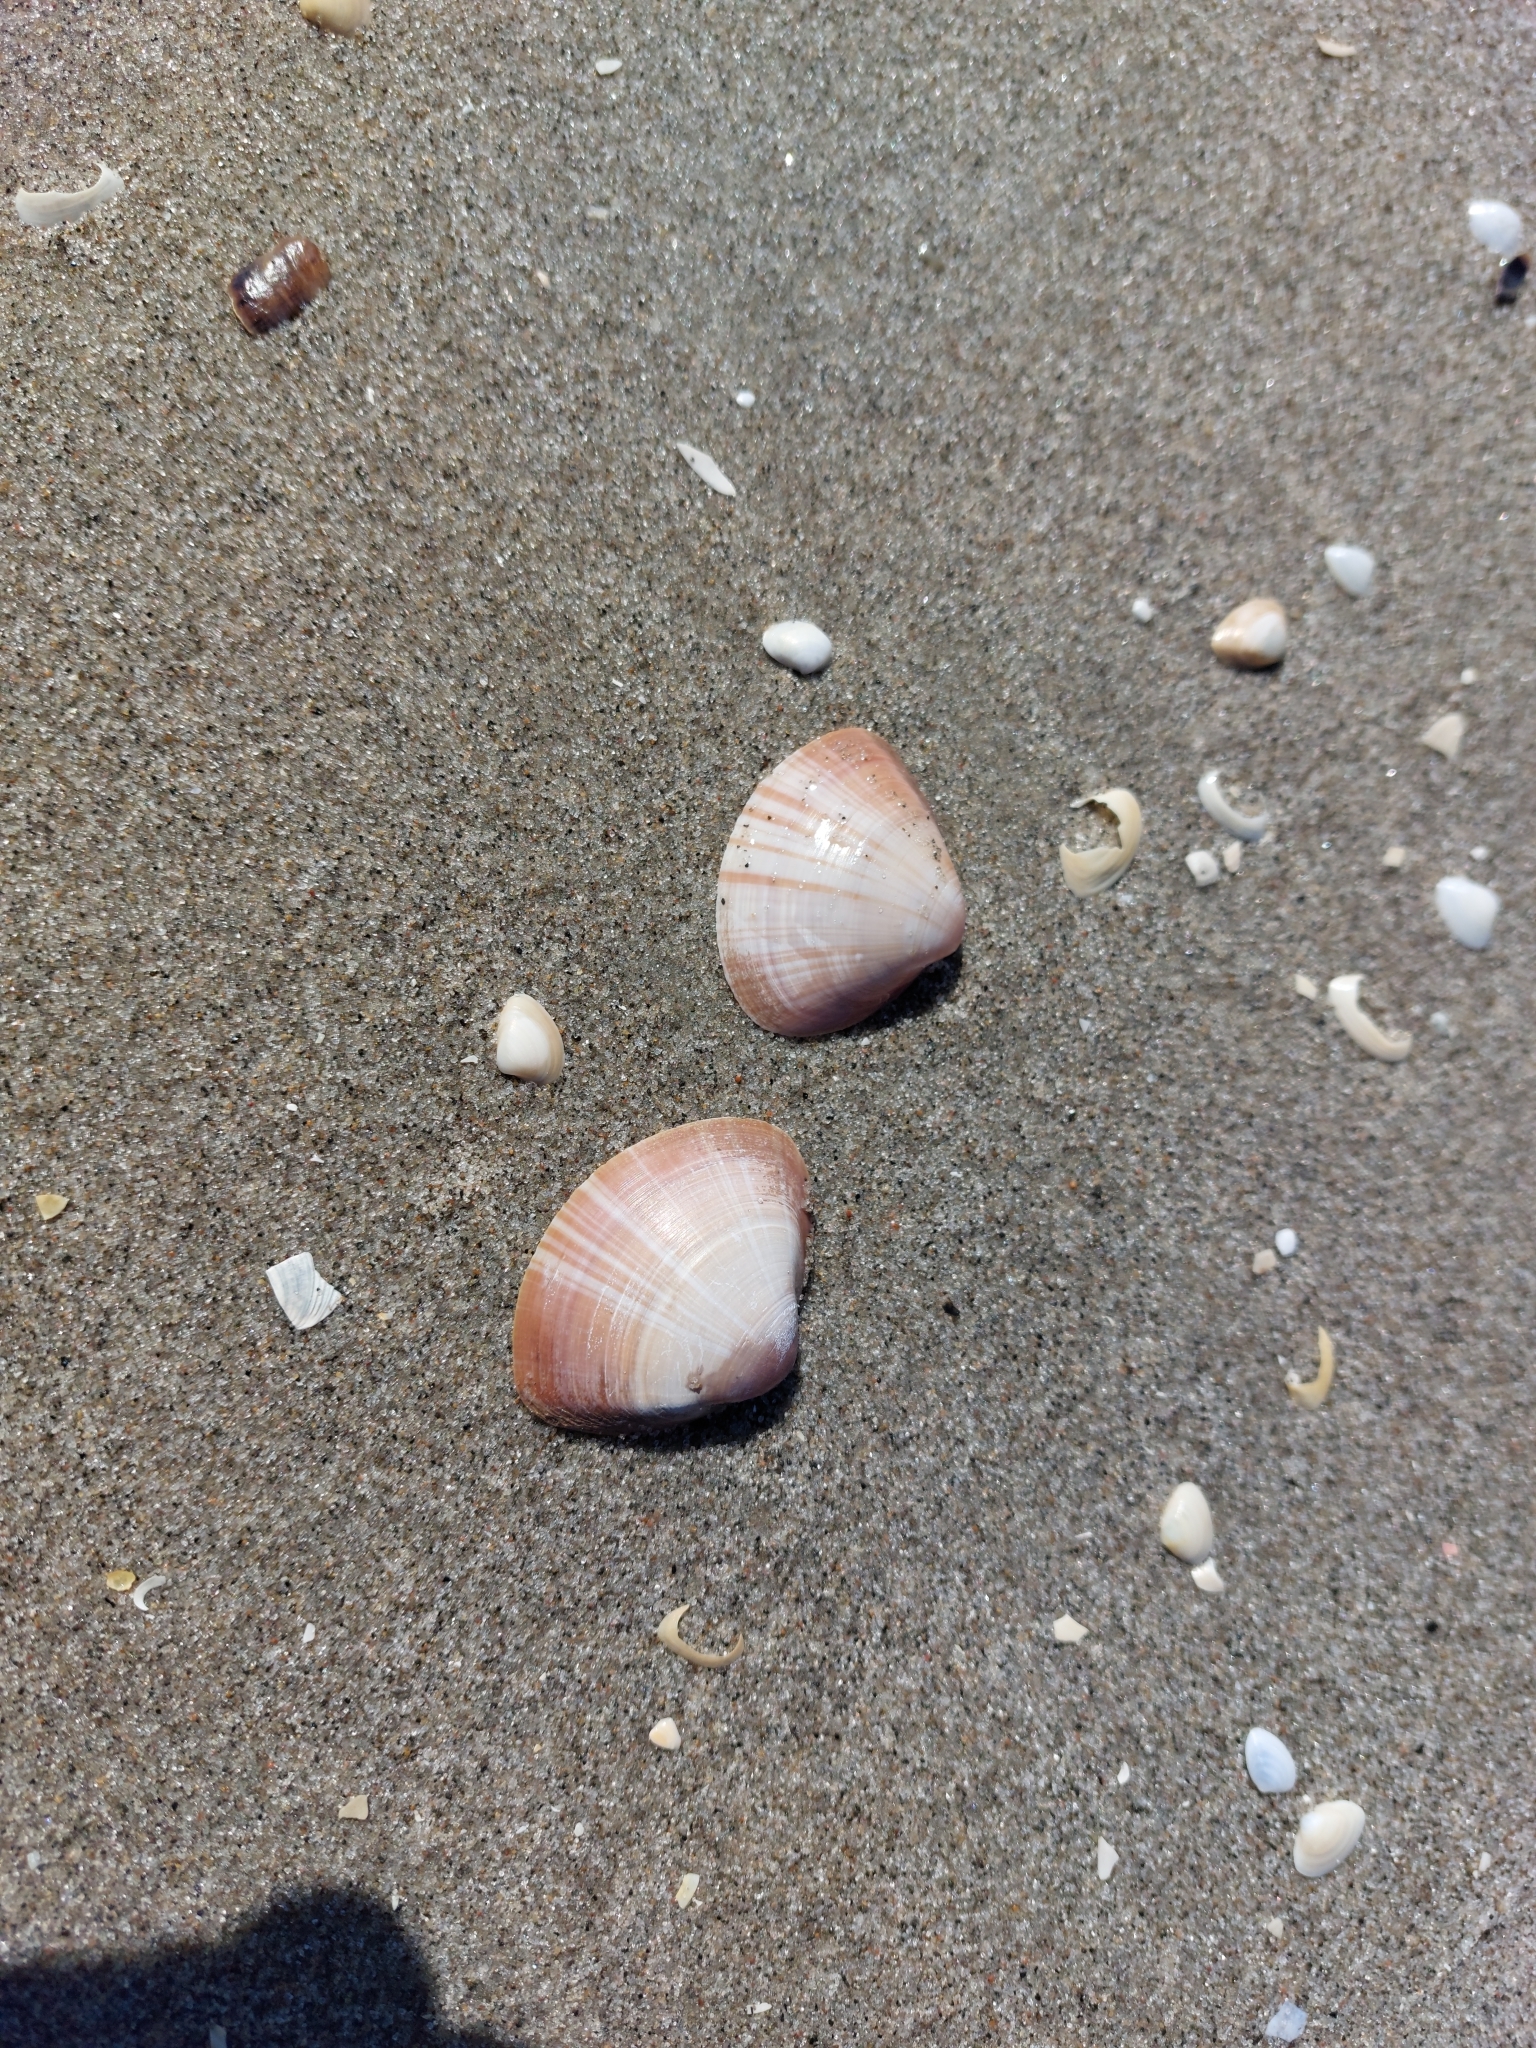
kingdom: Animalia
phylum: Mollusca
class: Bivalvia
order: Venerida
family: Mactridae
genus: Mactra
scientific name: Mactra stultorum
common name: Rayed trough shell
